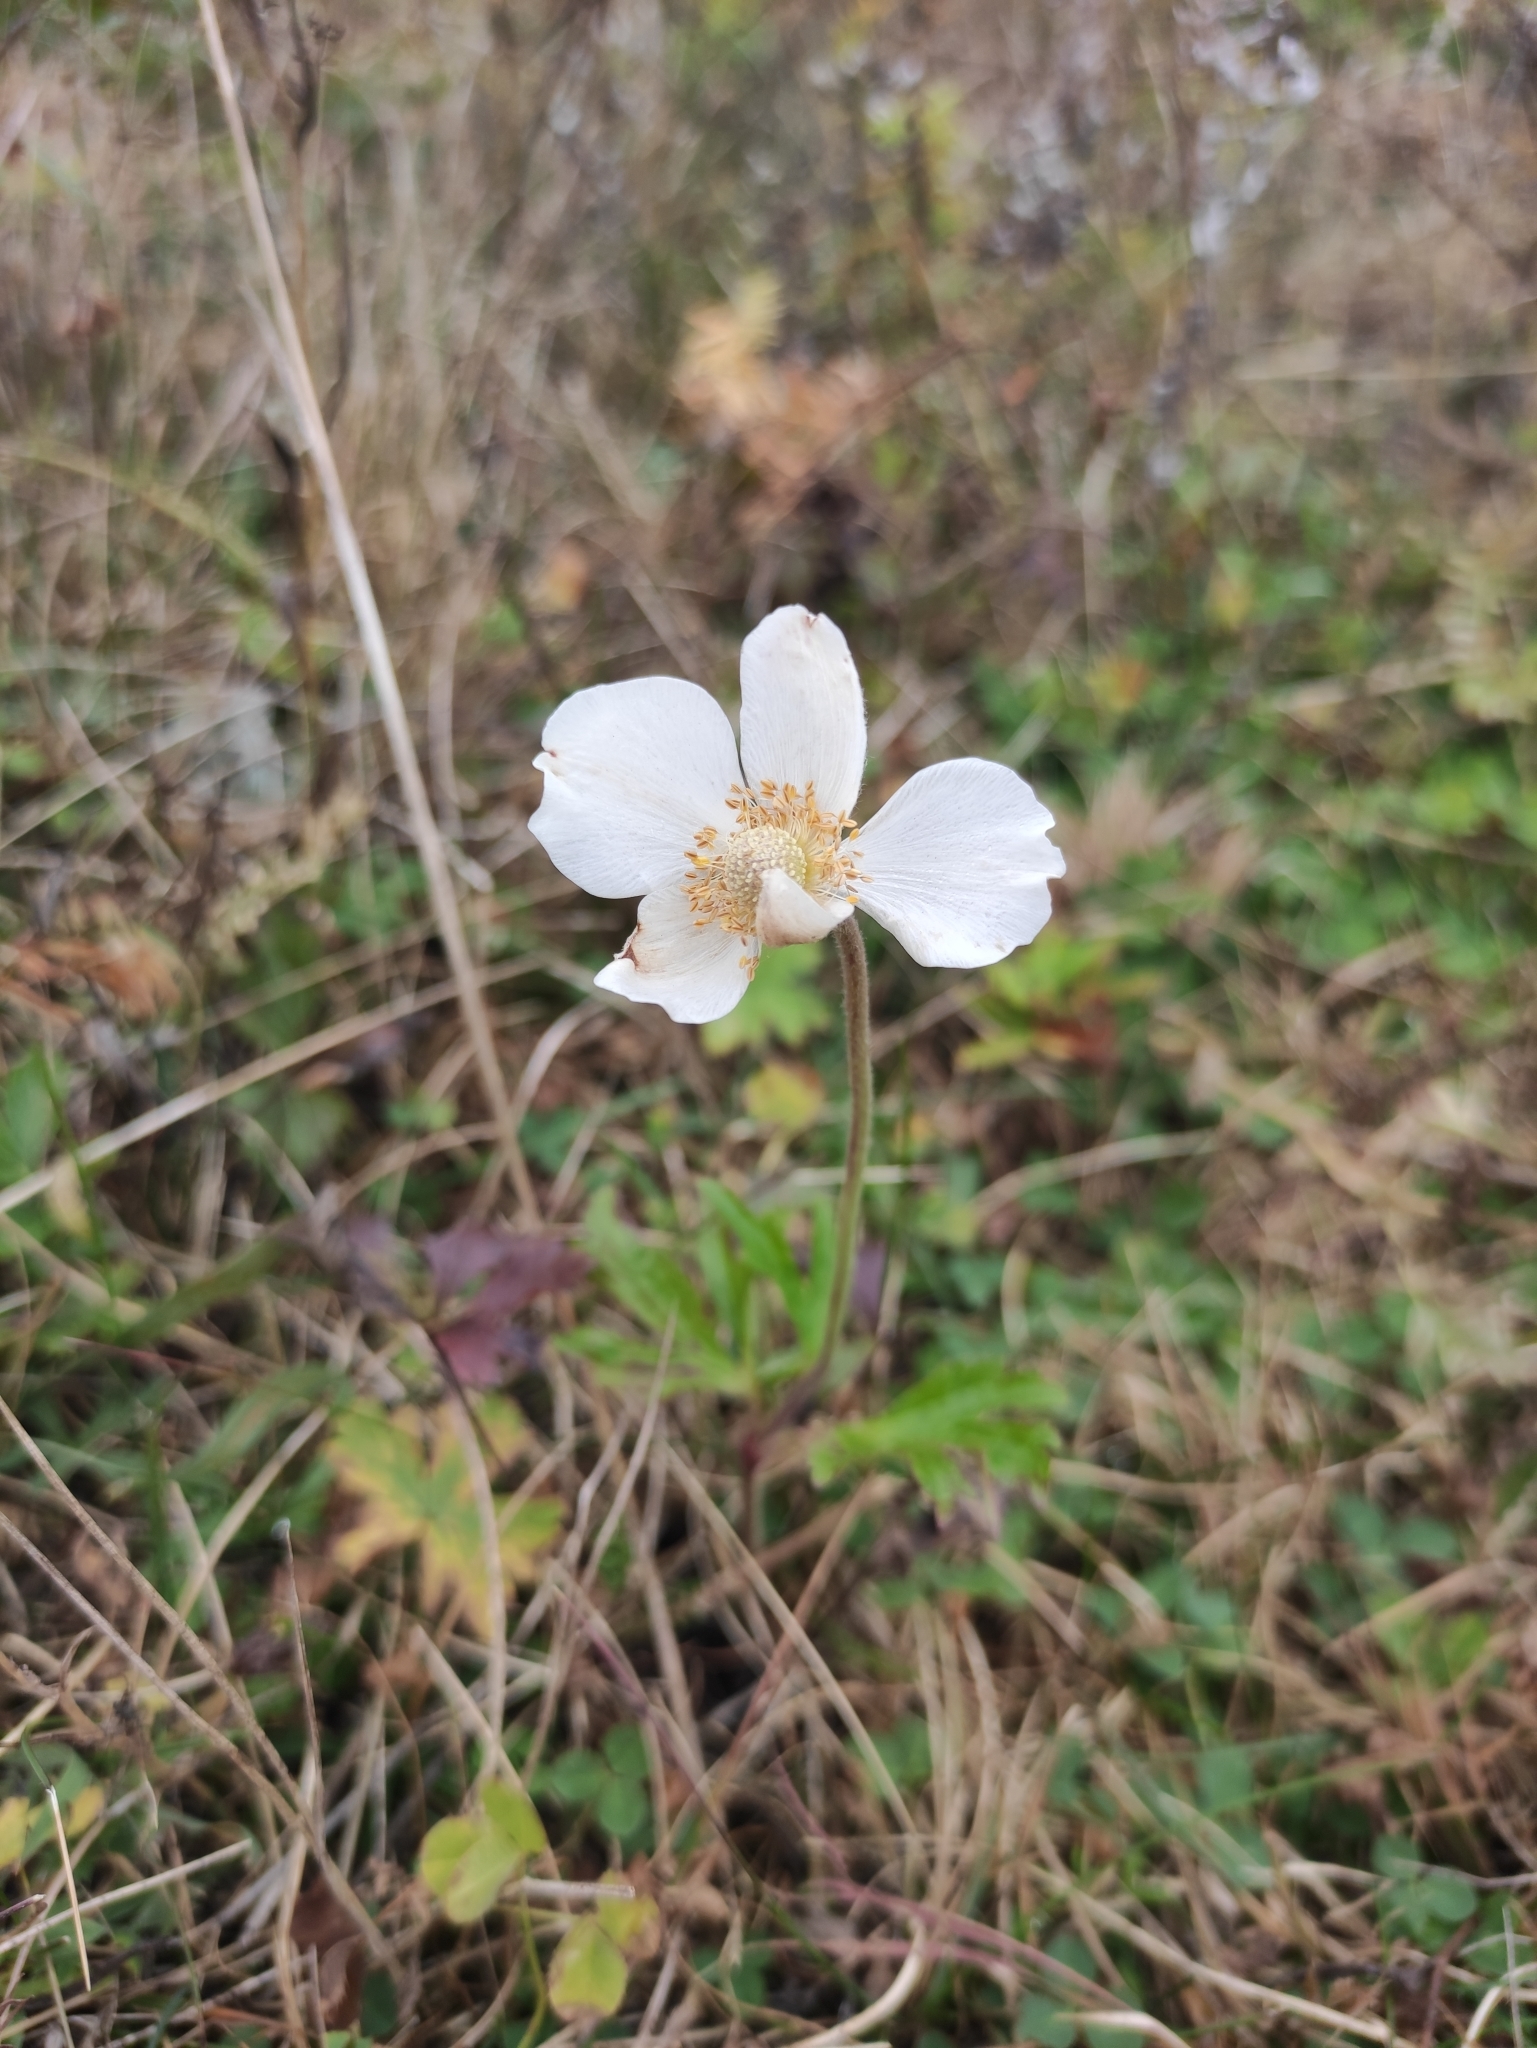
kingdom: Plantae
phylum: Tracheophyta
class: Magnoliopsida
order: Ranunculales
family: Ranunculaceae
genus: Anemone
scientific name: Anemone sylvestris
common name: Snowdrop anemone
